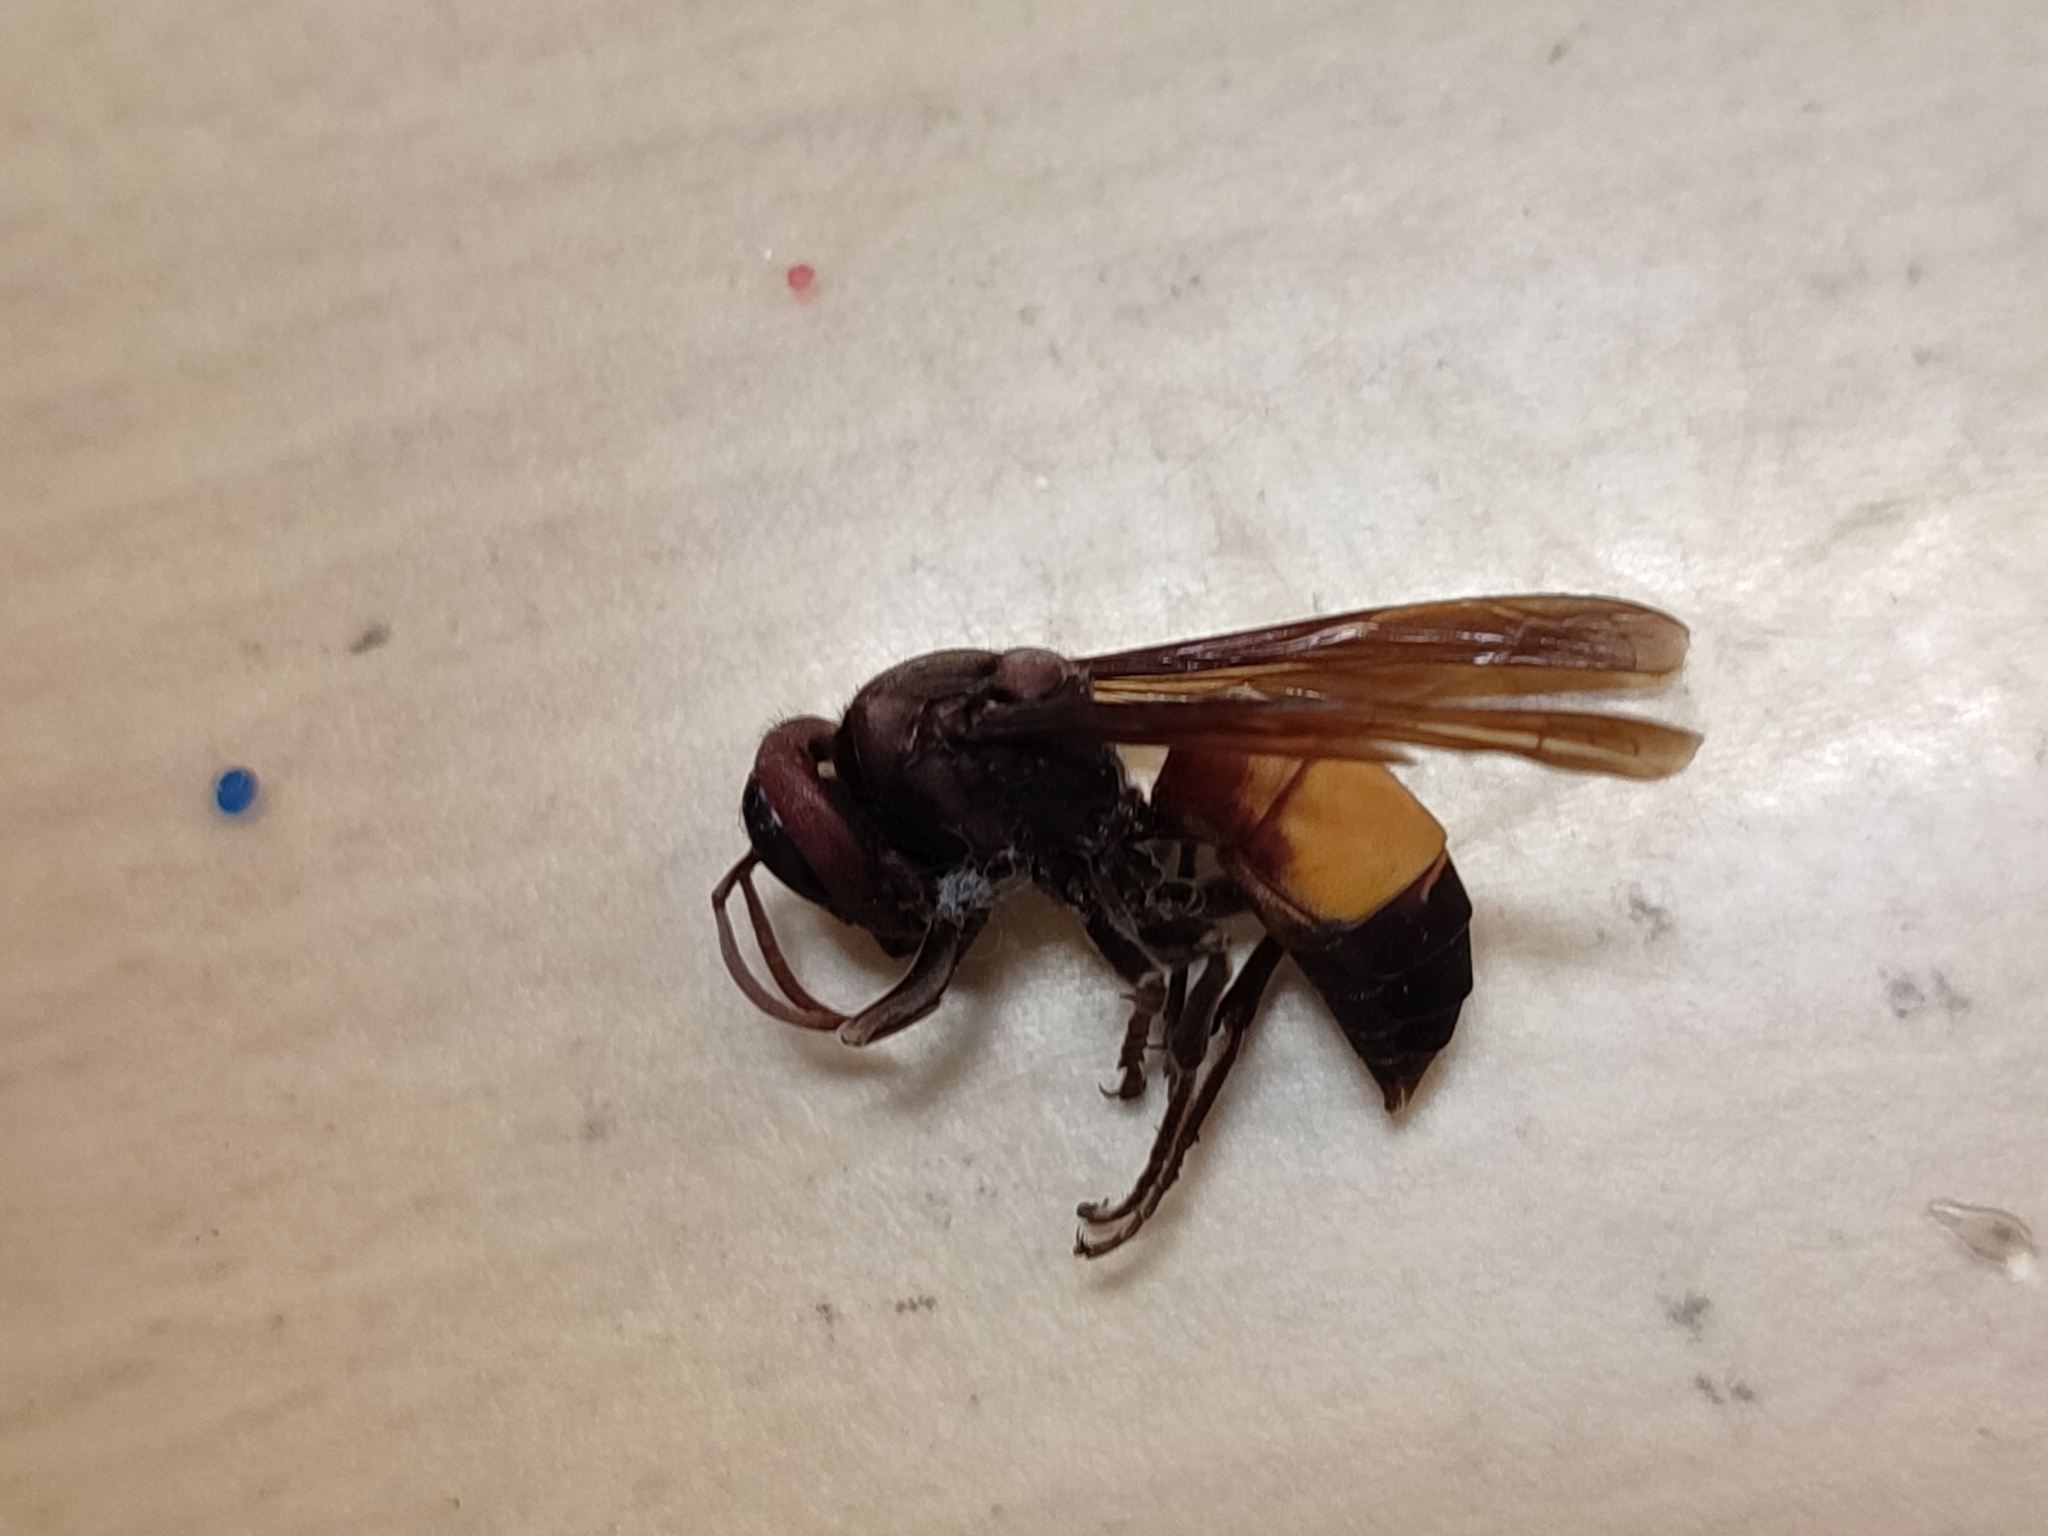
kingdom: Animalia
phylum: Arthropoda
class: Insecta
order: Hymenoptera
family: Vespidae
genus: Vespa
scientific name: Vespa affinis
